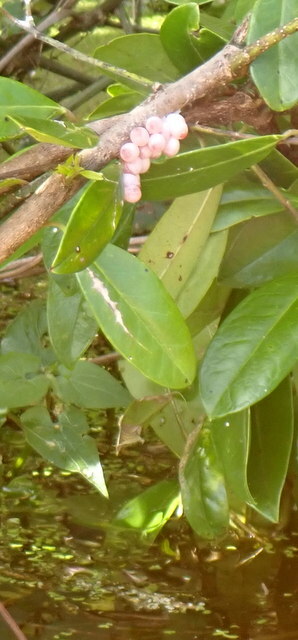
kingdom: Animalia
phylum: Mollusca
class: Gastropoda
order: Architaenioglossa
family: Ampullariidae
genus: Pomacea
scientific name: Pomacea paludosa
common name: Florida applesnail
